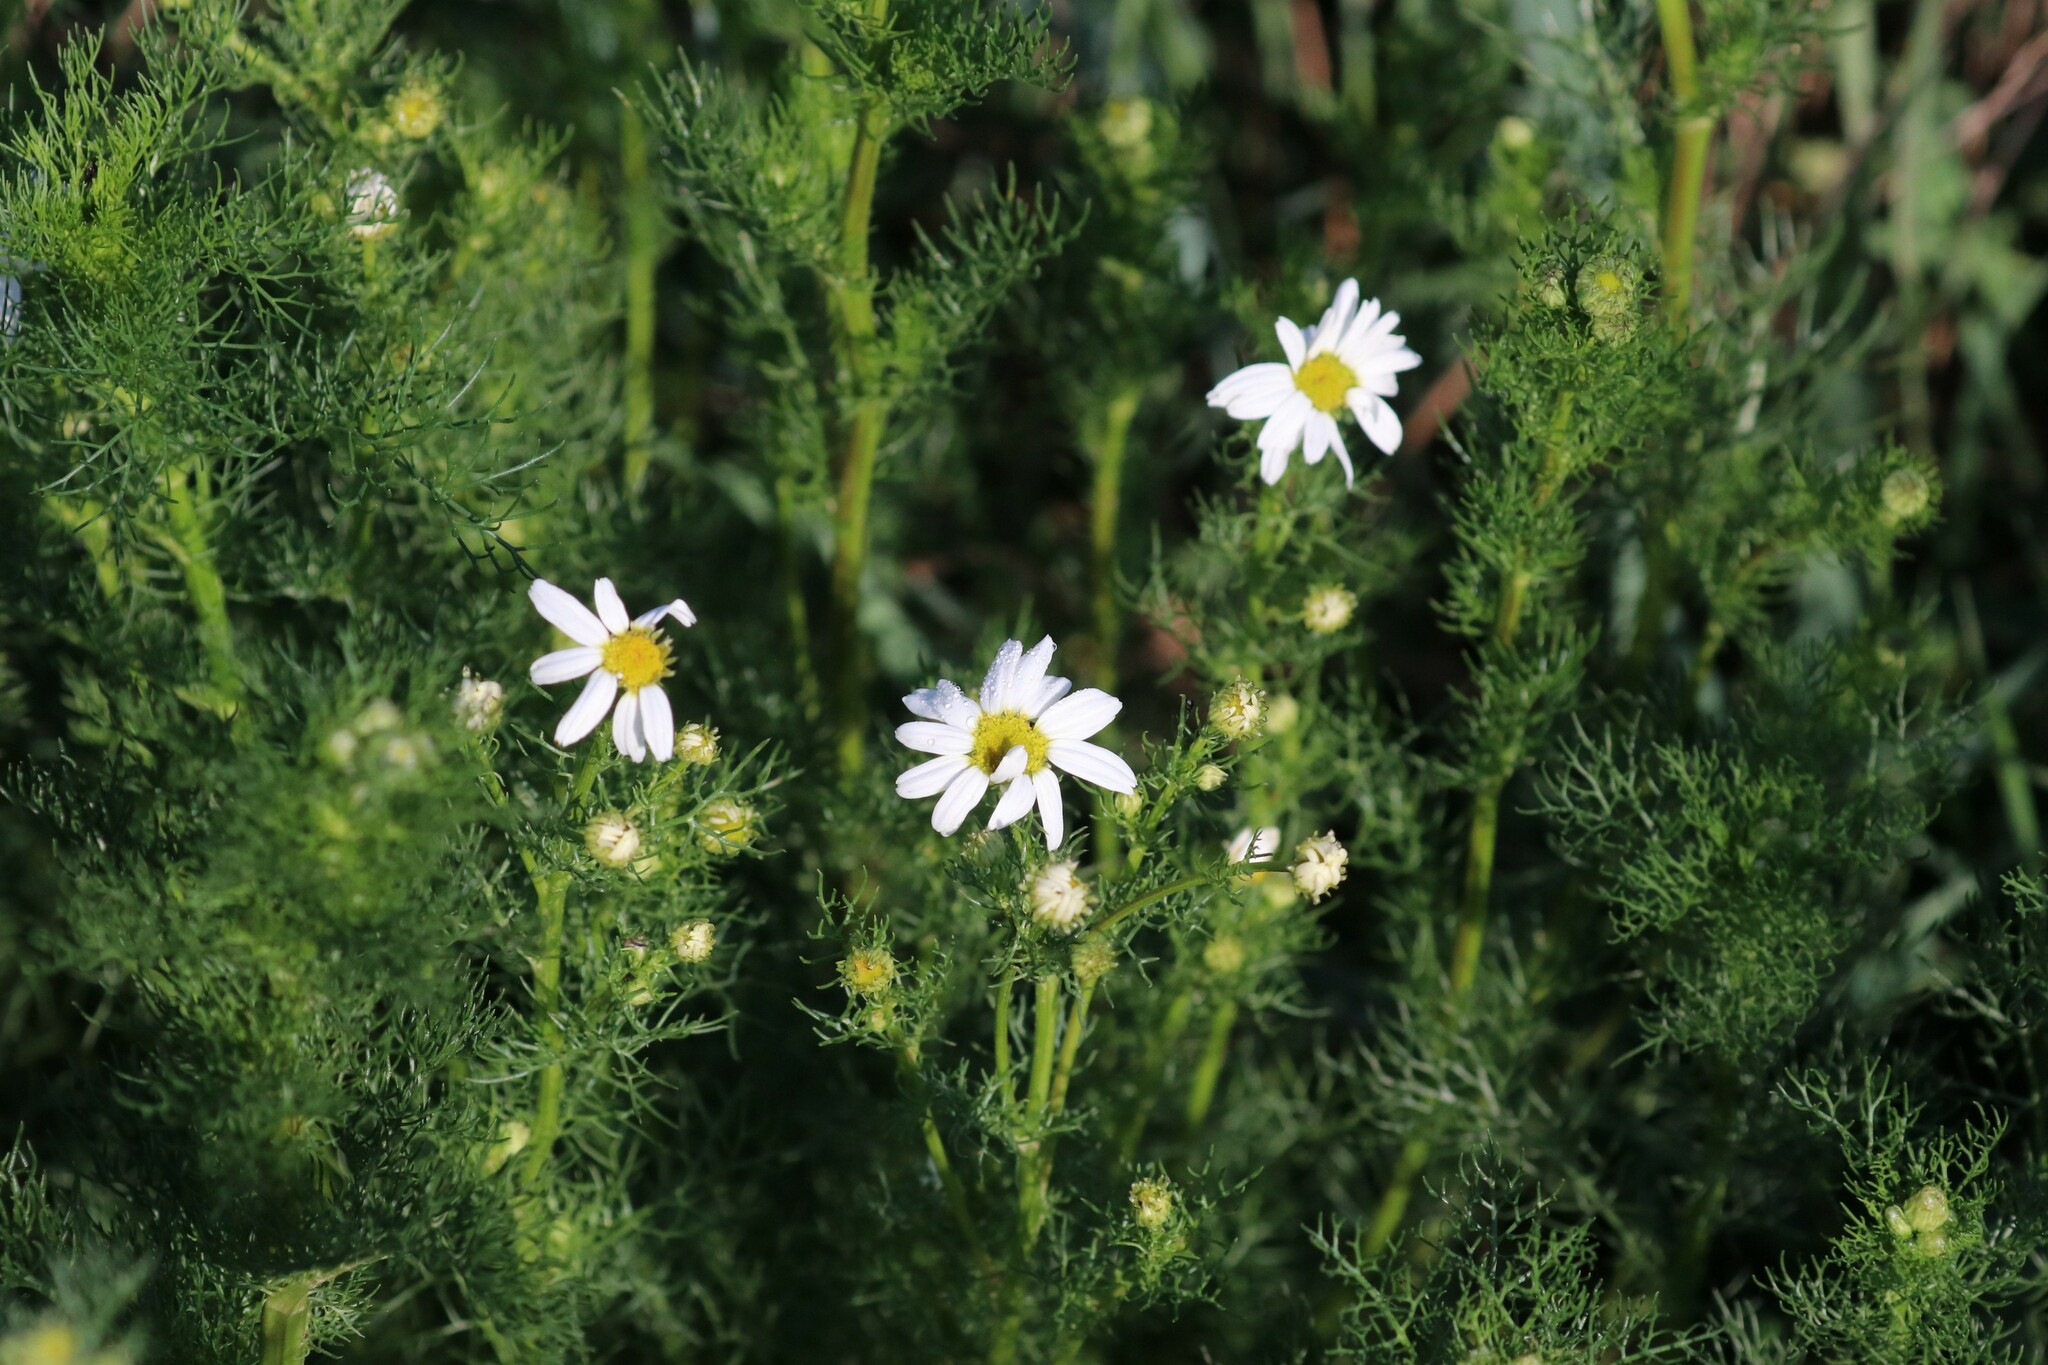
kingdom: Plantae
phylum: Tracheophyta
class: Magnoliopsida
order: Asterales
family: Asteraceae
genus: Tripleurospermum
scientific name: Tripleurospermum inodorum
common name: Scentless mayweed
